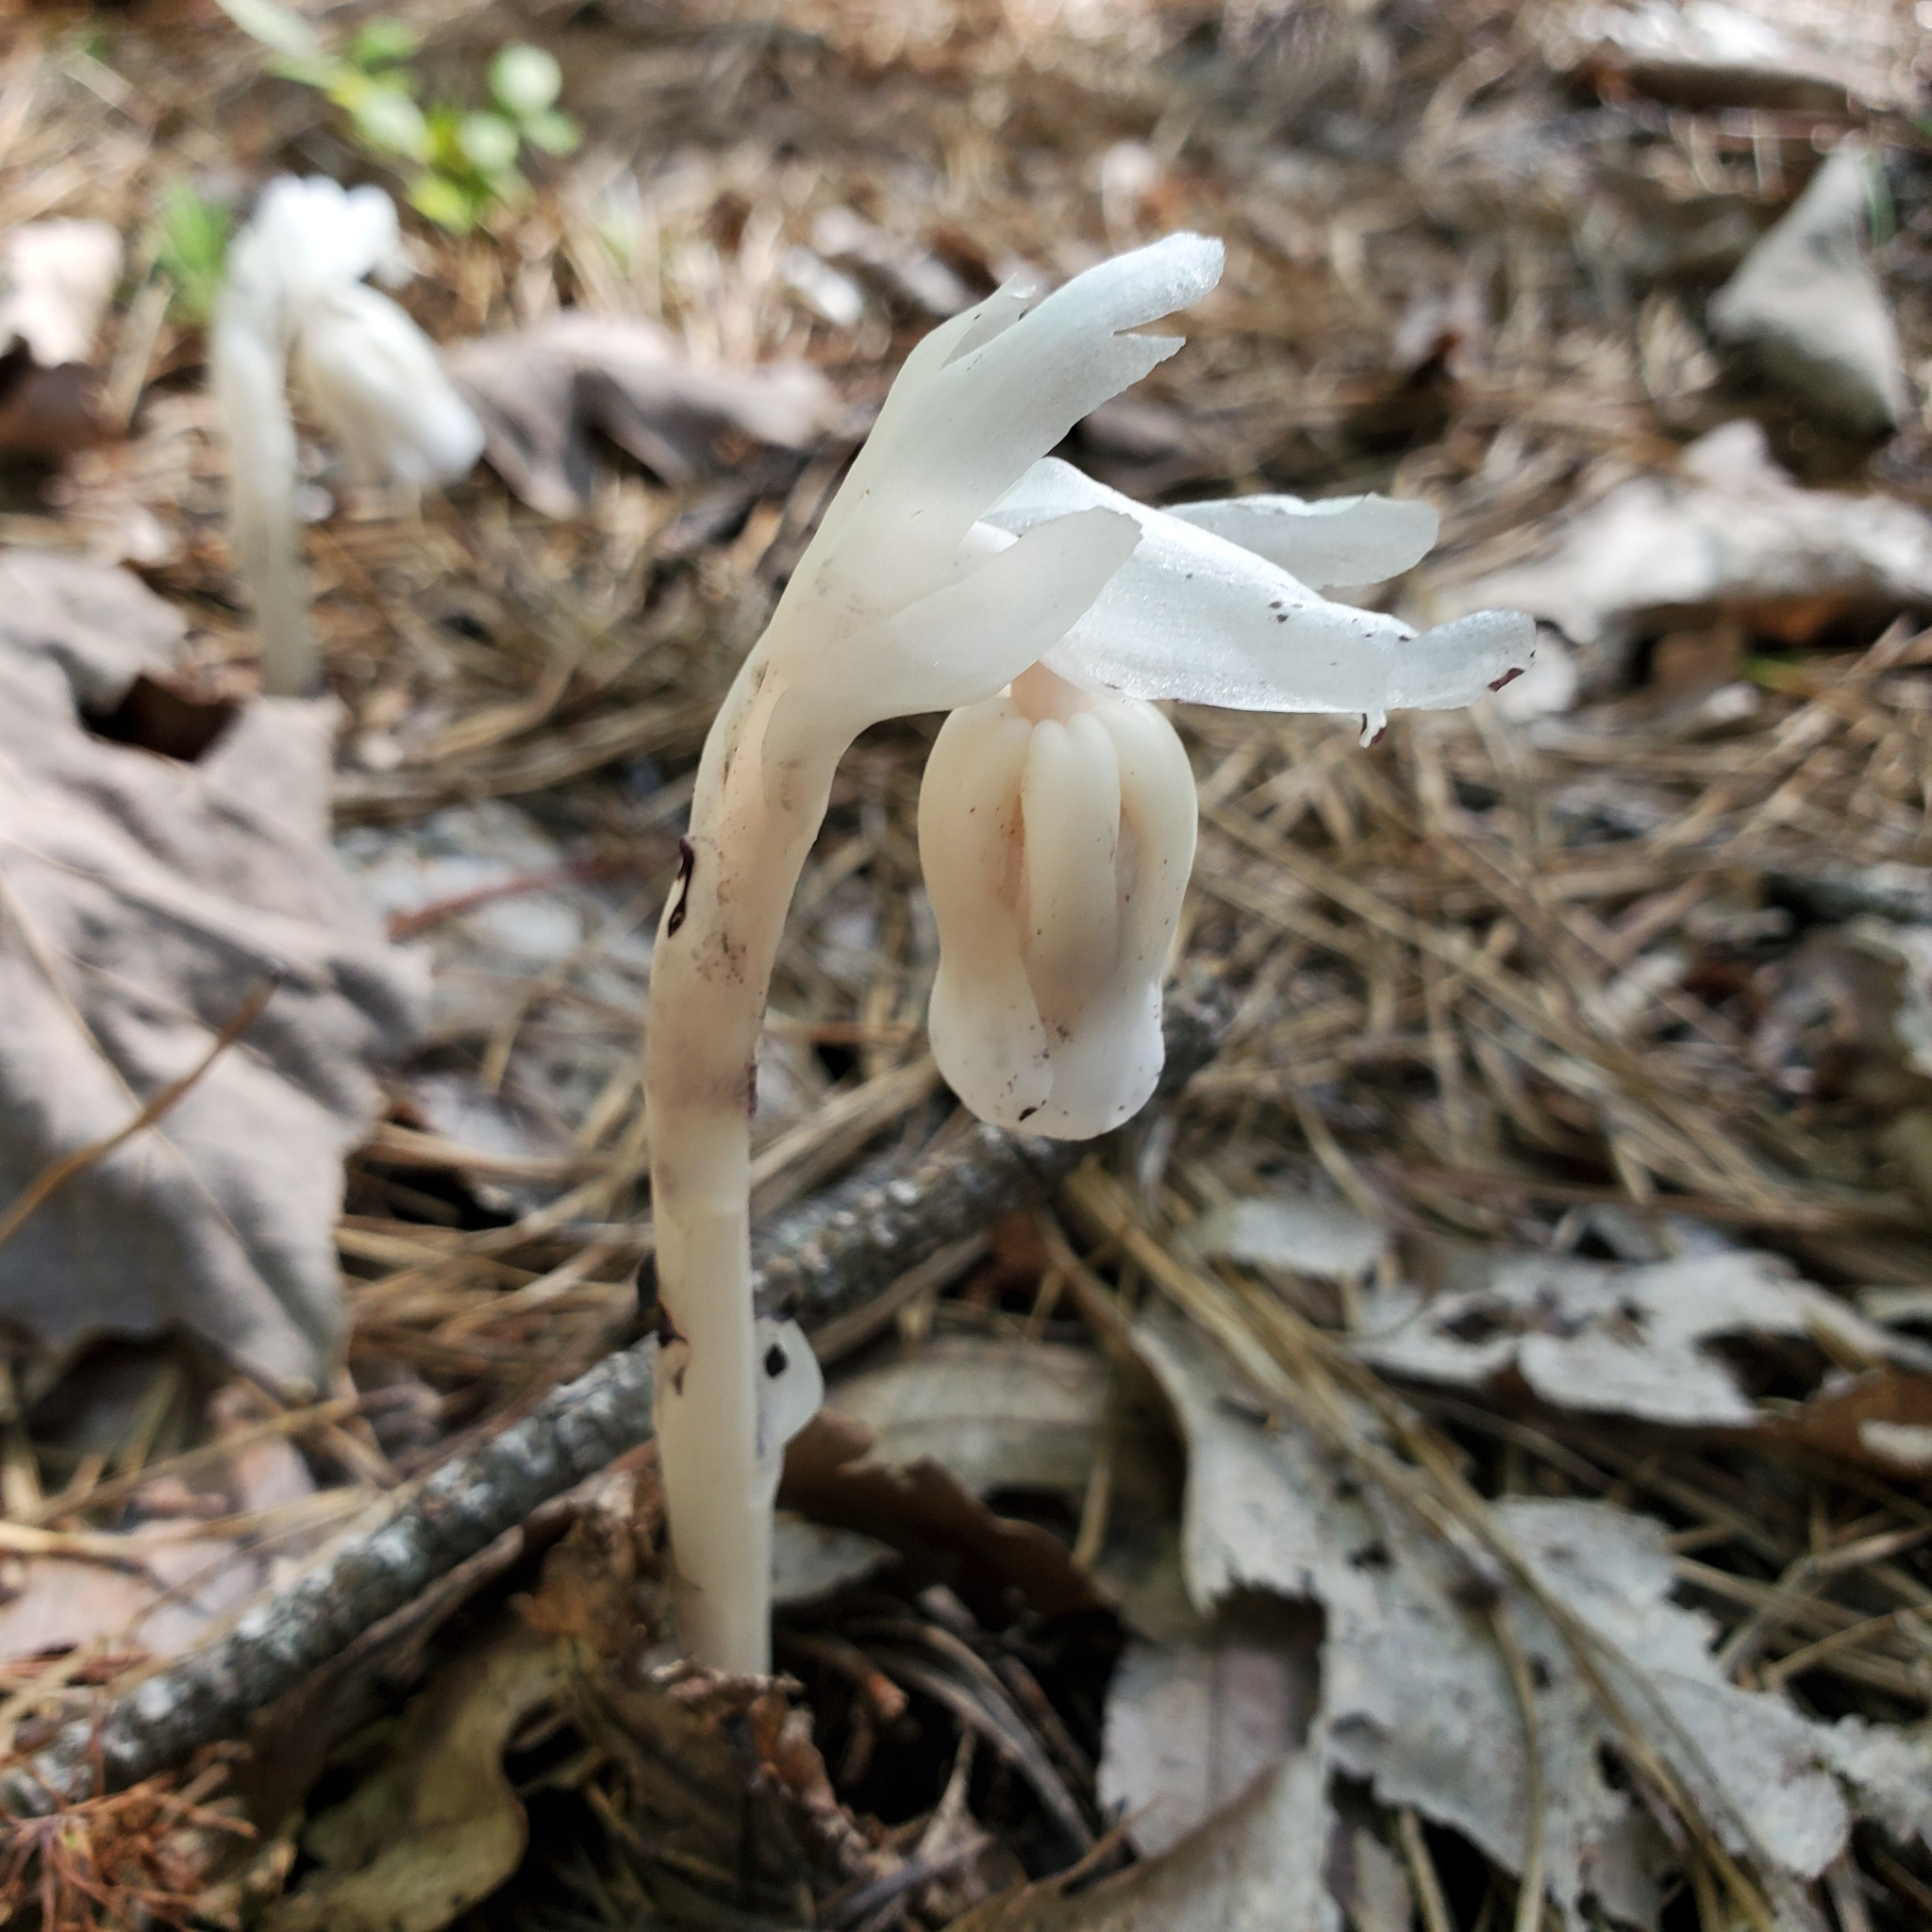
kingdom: Plantae
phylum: Tracheophyta
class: Magnoliopsida
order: Ericales
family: Ericaceae
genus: Monotropa
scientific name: Monotropa uniflora
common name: Convulsion root
